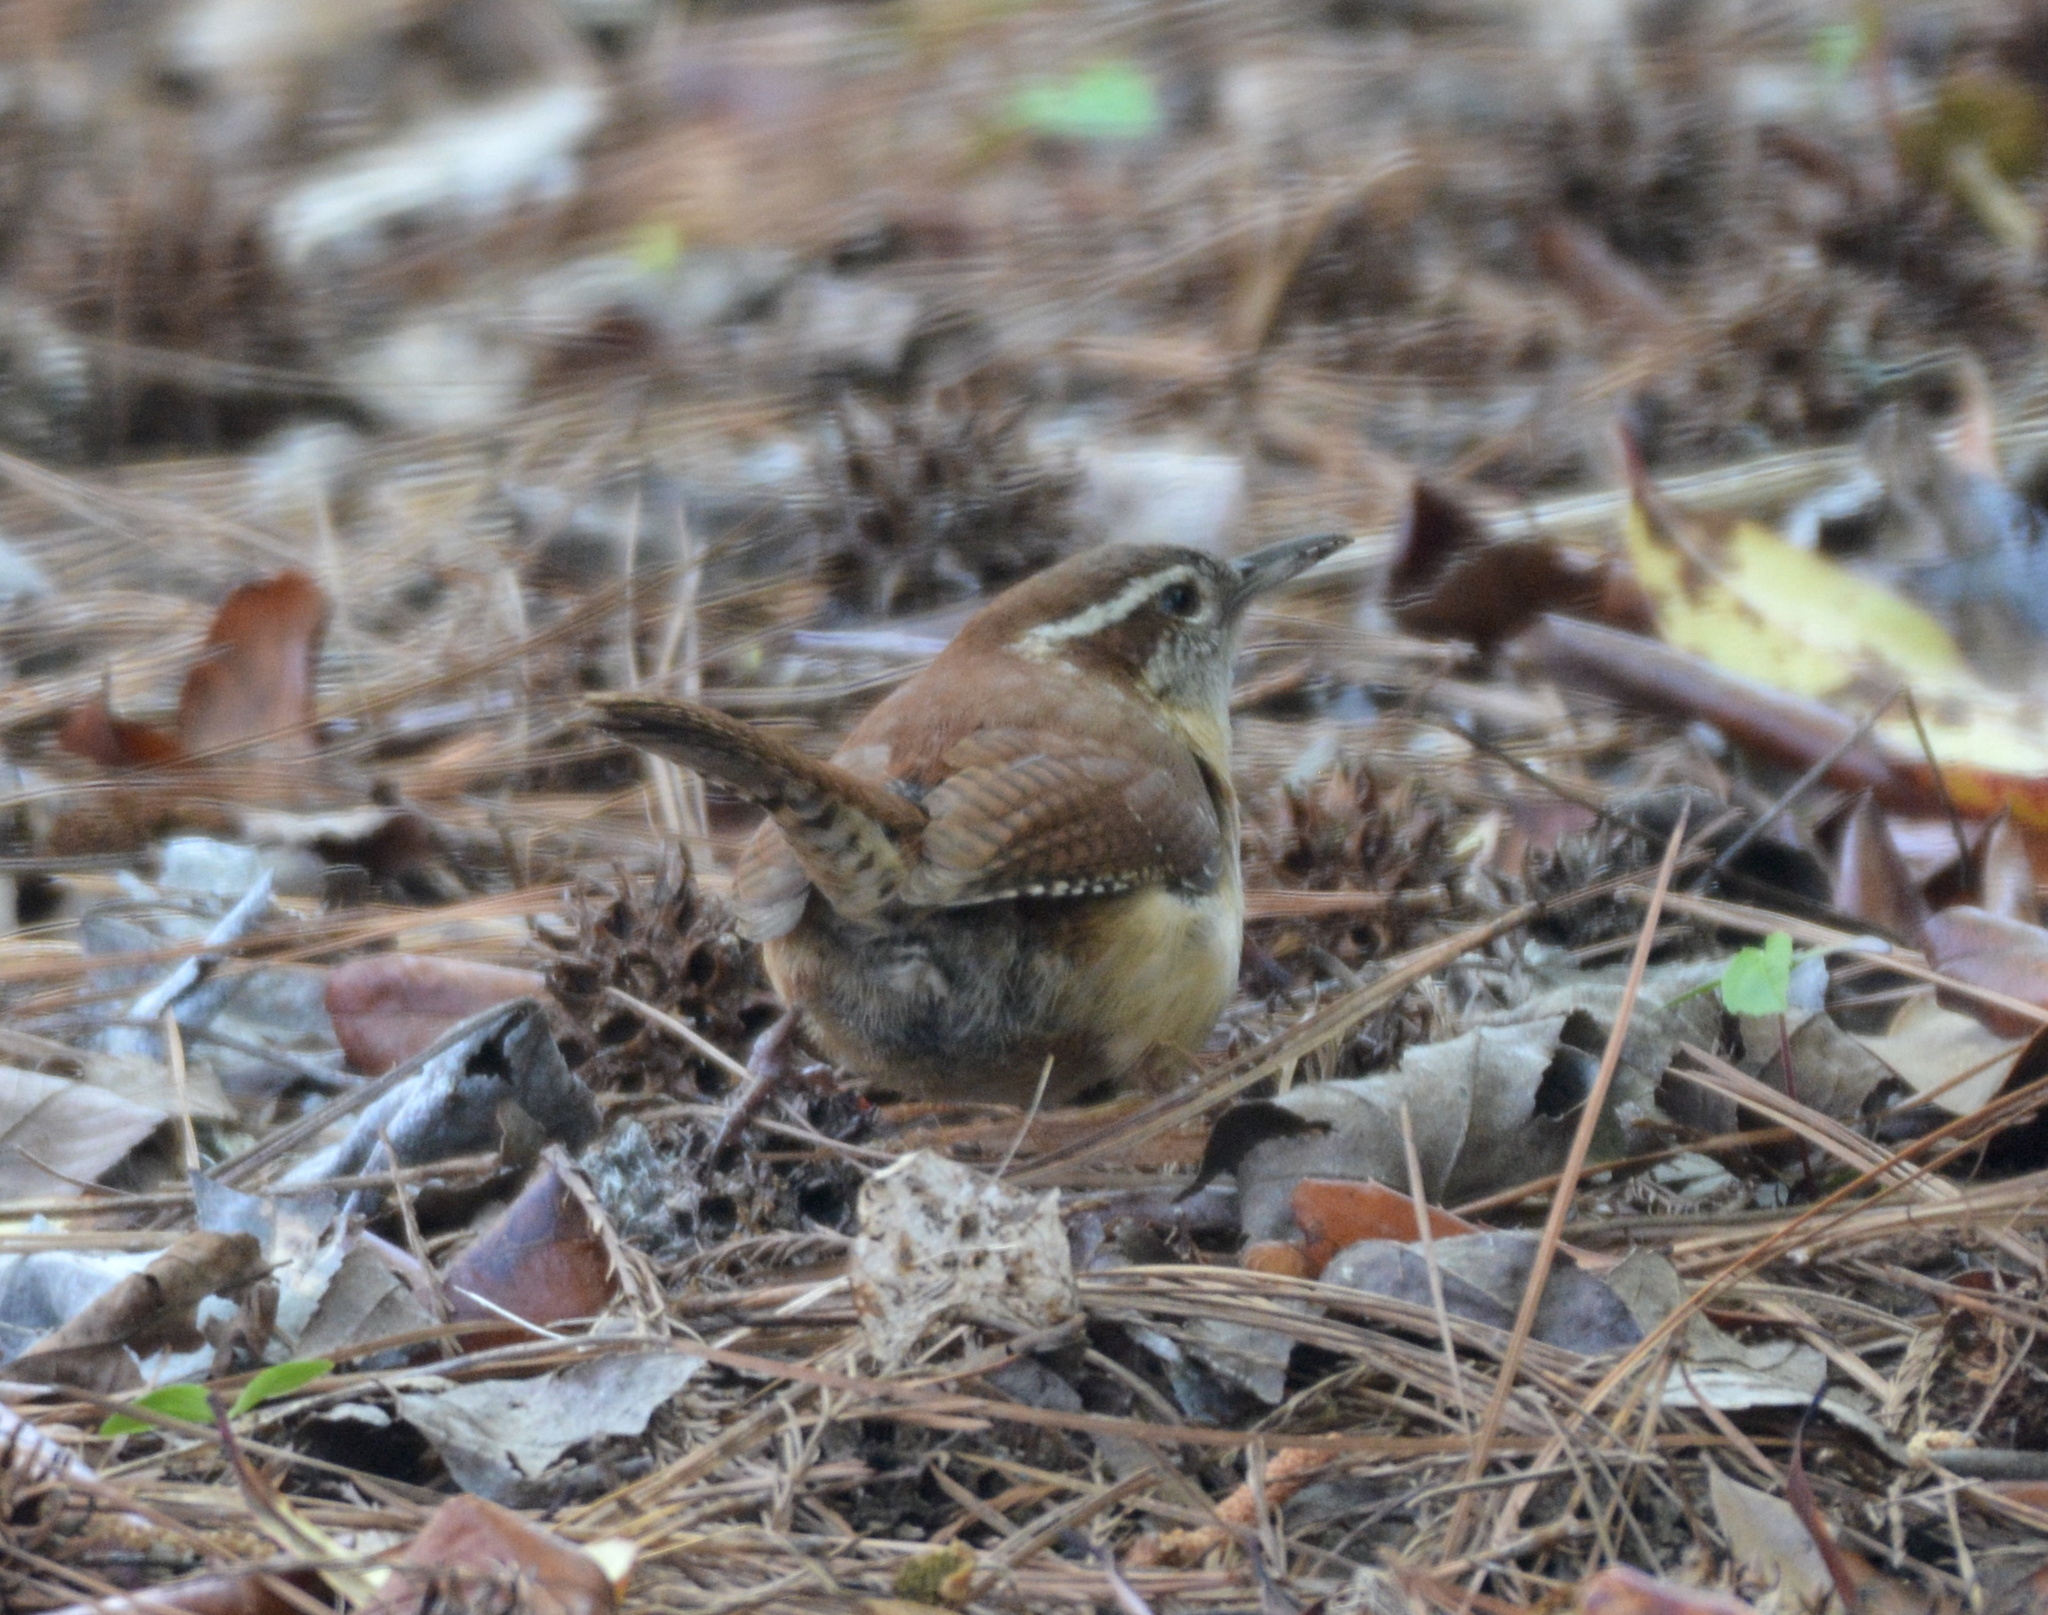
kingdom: Animalia
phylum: Chordata
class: Aves
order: Passeriformes
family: Troglodytidae
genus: Thryothorus
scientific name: Thryothorus ludovicianus
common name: Carolina wren
